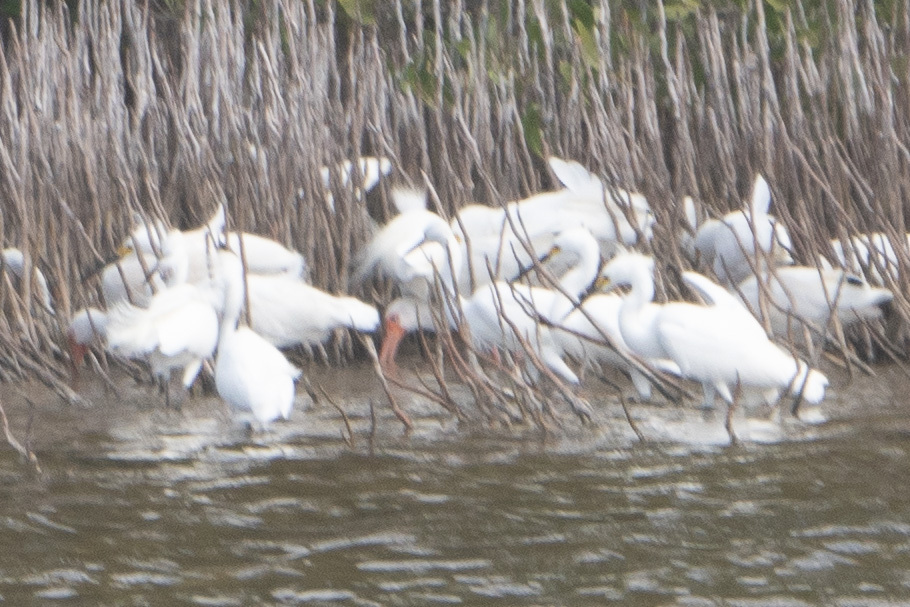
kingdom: Animalia
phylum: Chordata
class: Aves
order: Pelecaniformes
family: Threskiornithidae
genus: Eudocimus
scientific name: Eudocimus albus
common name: White ibis
